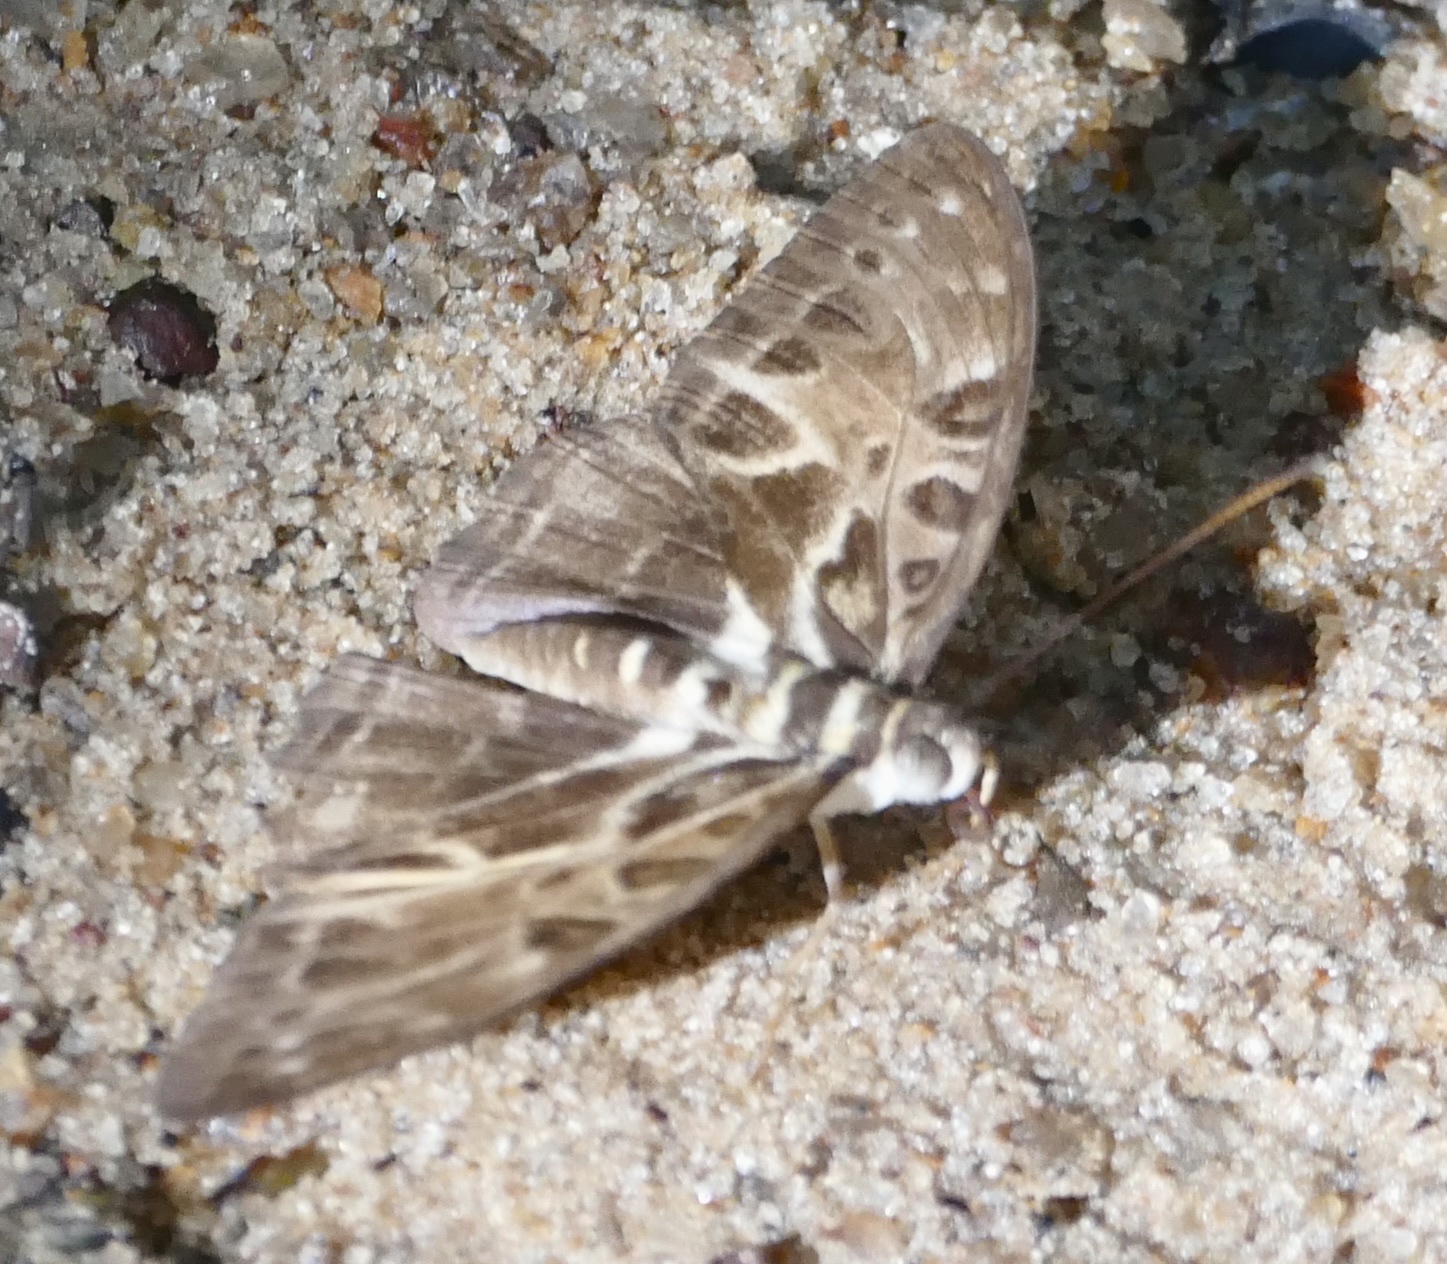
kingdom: Animalia
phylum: Arthropoda
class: Insecta
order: Lepidoptera
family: Nymphalidae
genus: Catuna
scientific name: Catuna
